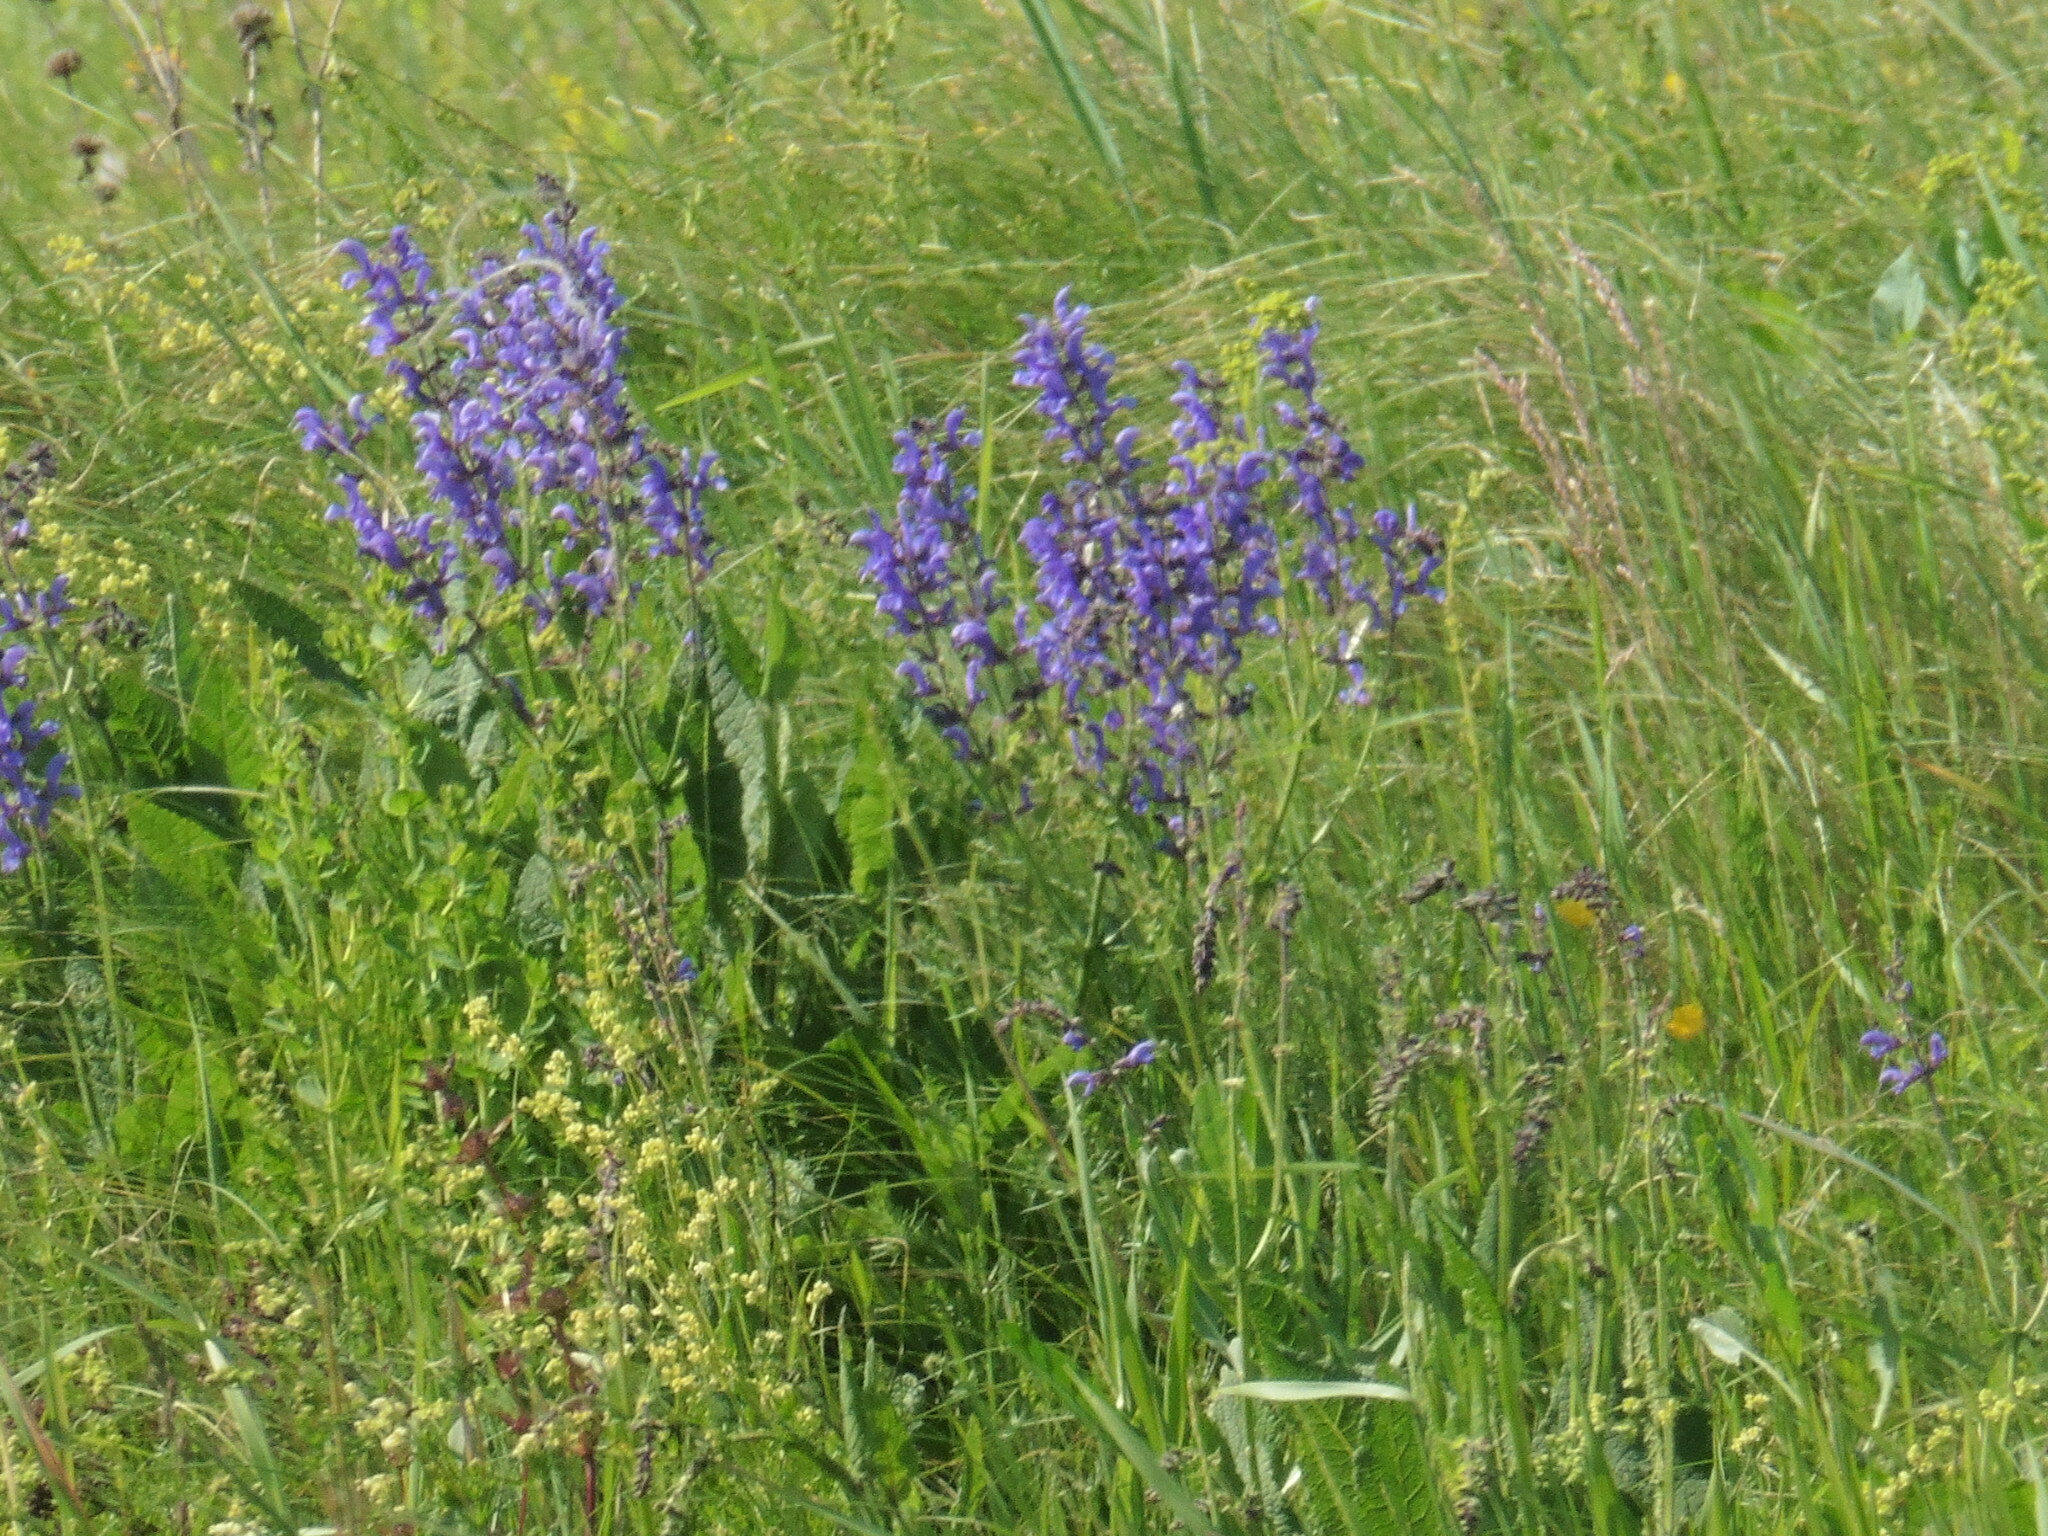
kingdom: Plantae
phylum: Tracheophyta
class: Magnoliopsida
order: Lamiales
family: Lamiaceae
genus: Salvia
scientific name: Salvia dumetorum
